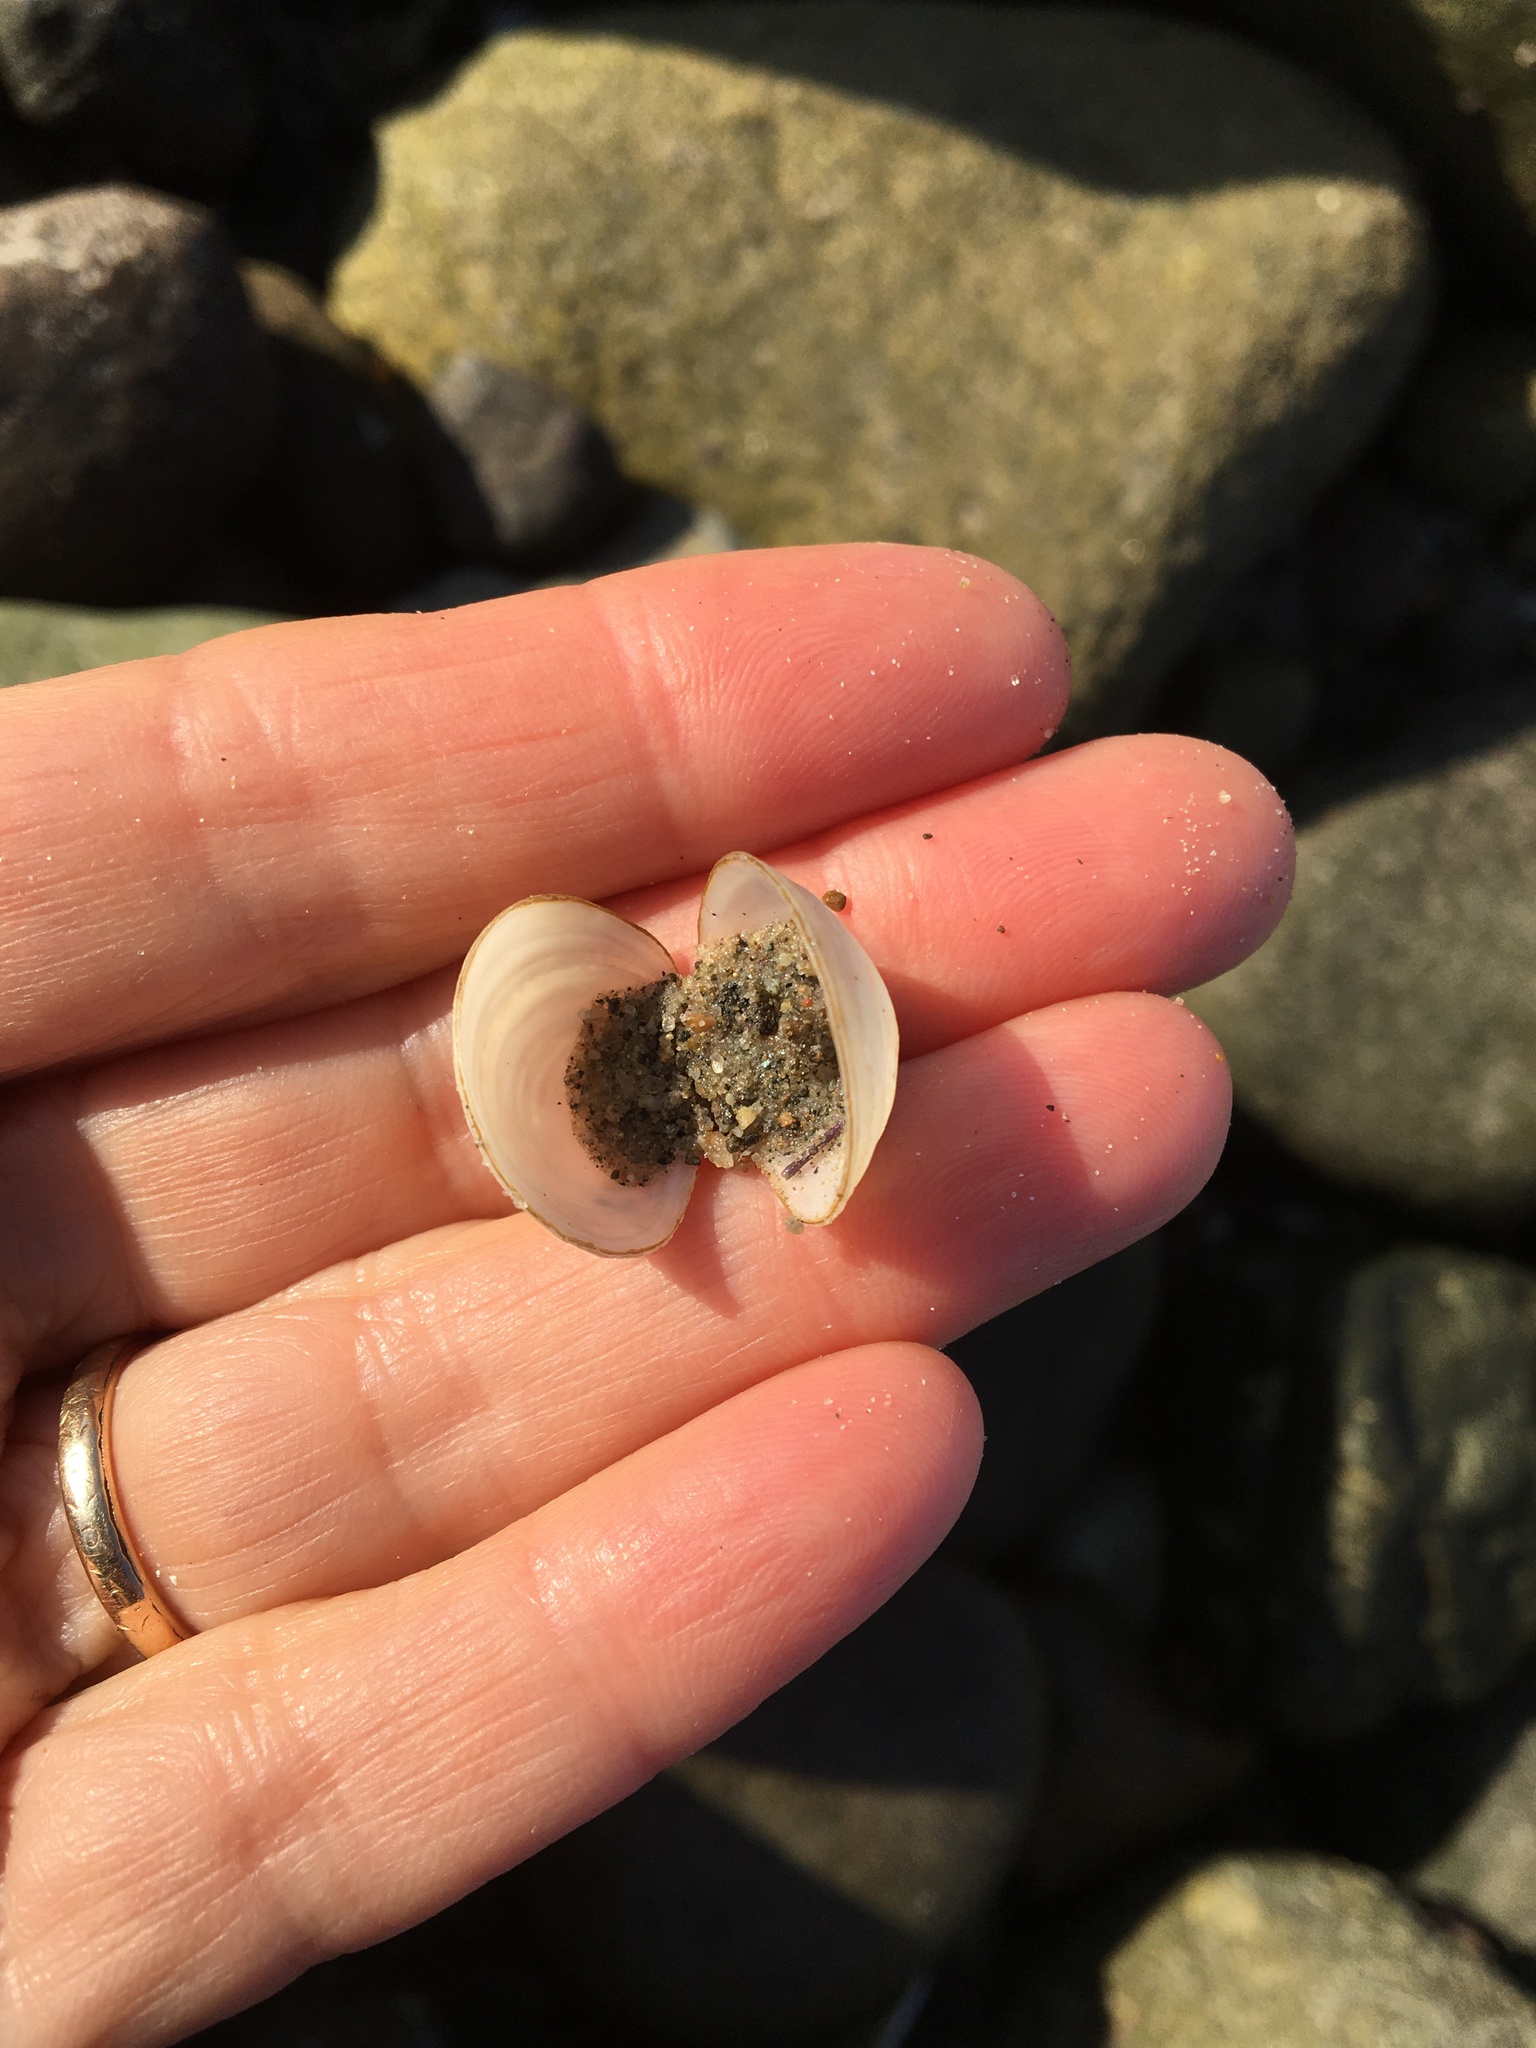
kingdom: Animalia
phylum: Mollusca
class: Bivalvia
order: Venerida
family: Ungulinidae
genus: Zemysina
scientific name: Zemysina orbella
